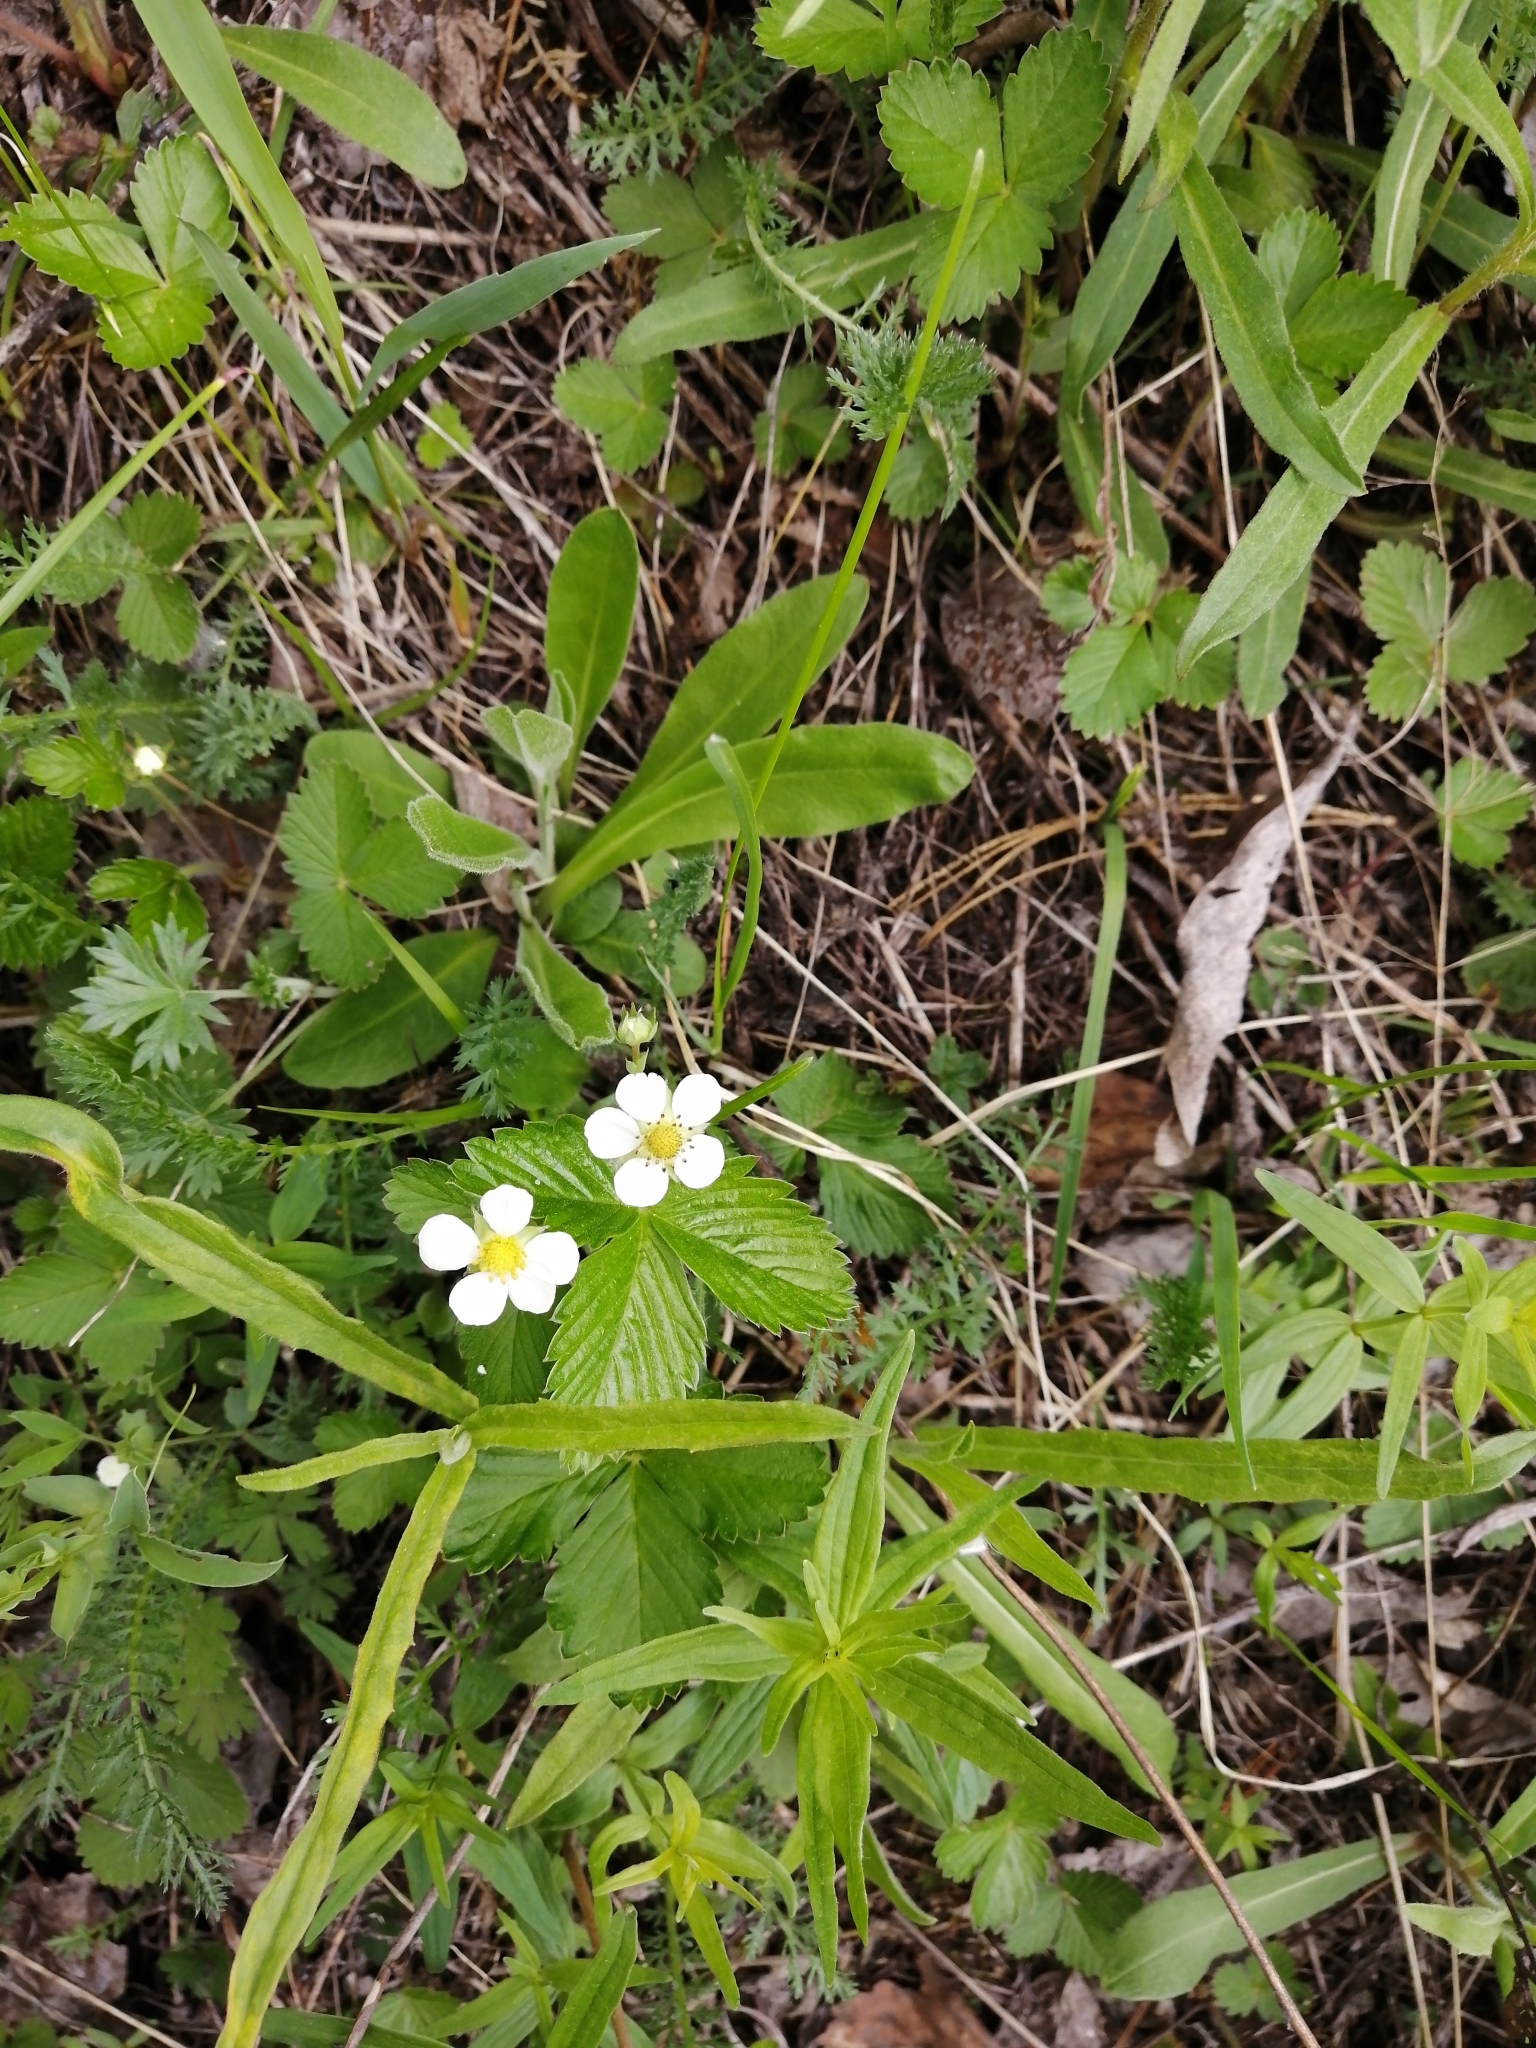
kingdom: Plantae
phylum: Tracheophyta
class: Magnoliopsida
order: Rosales
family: Rosaceae
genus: Fragaria
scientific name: Fragaria vesca
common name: Wild strawberry
